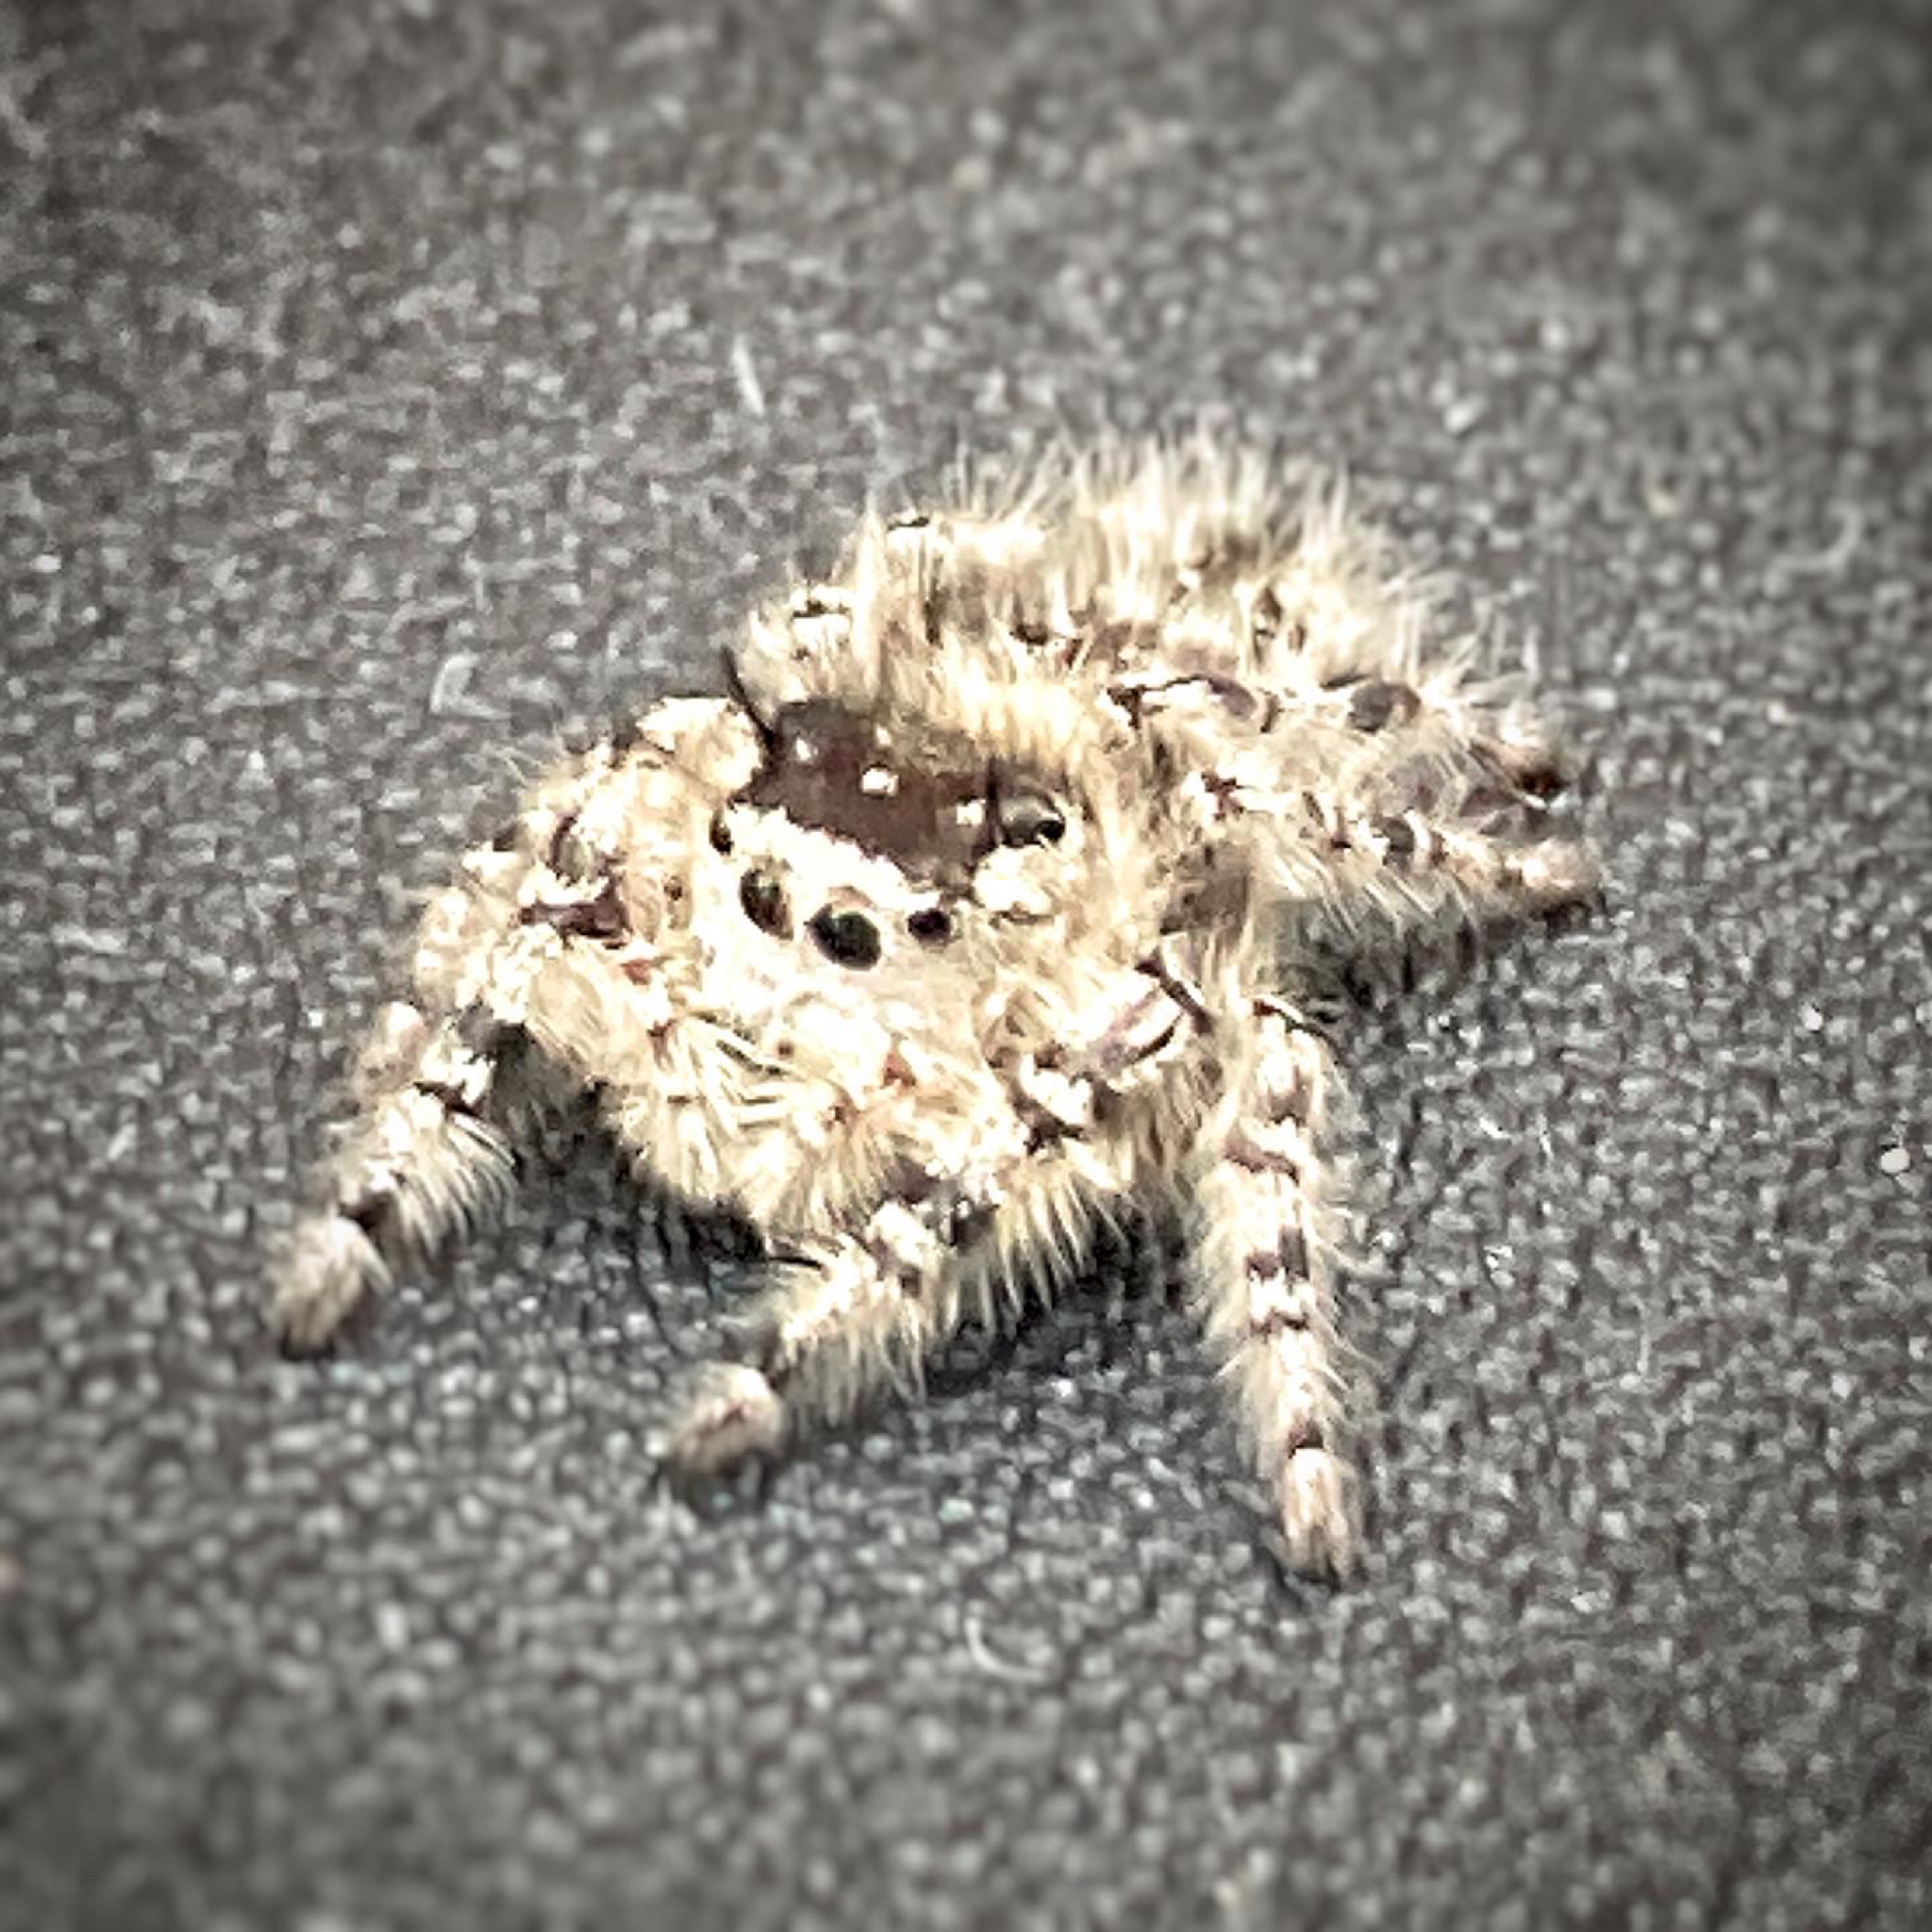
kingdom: Animalia
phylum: Arthropoda
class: Arachnida
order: Araneae
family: Salticidae
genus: Phidippus
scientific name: Phidippus otiosus
